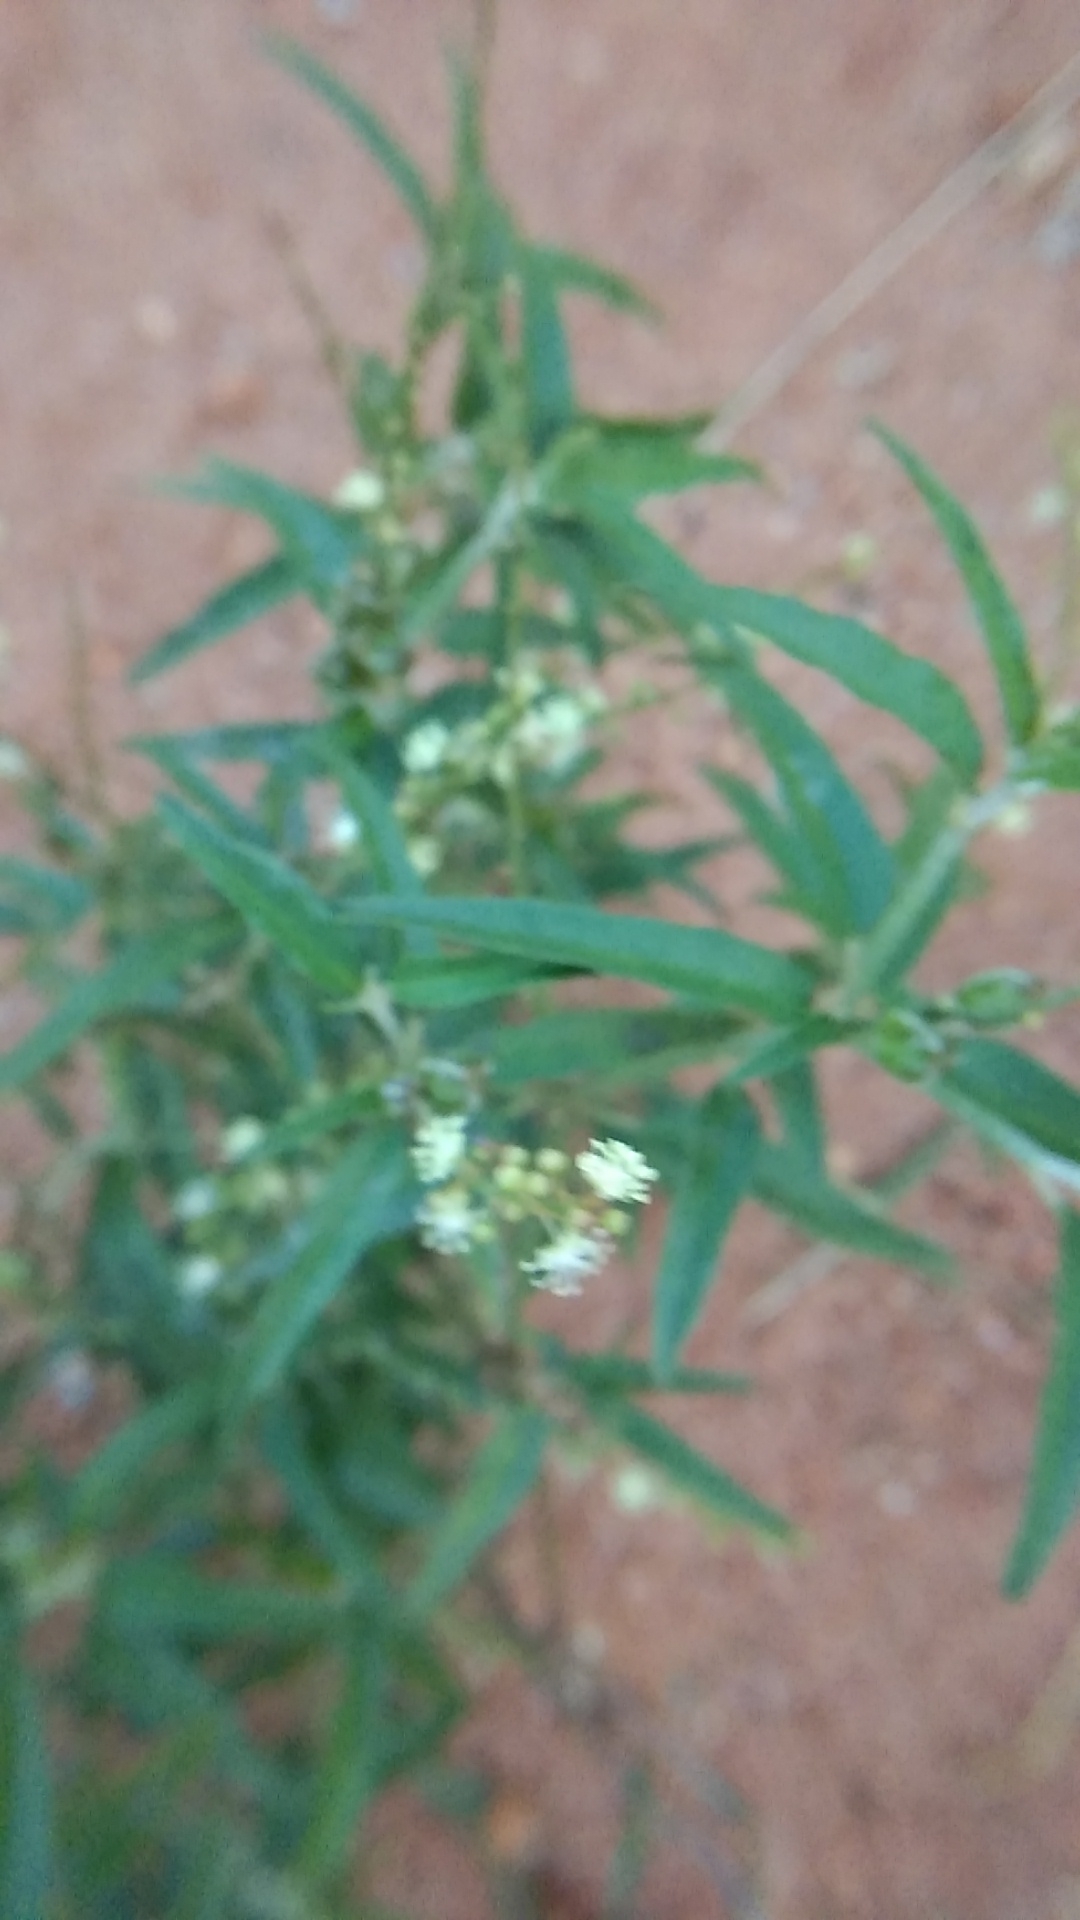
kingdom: Plantae
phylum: Tracheophyta
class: Magnoliopsida
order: Malpighiales
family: Euphorbiaceae
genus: Croton
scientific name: Croton bonplandianus
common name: Bonpland's croton
